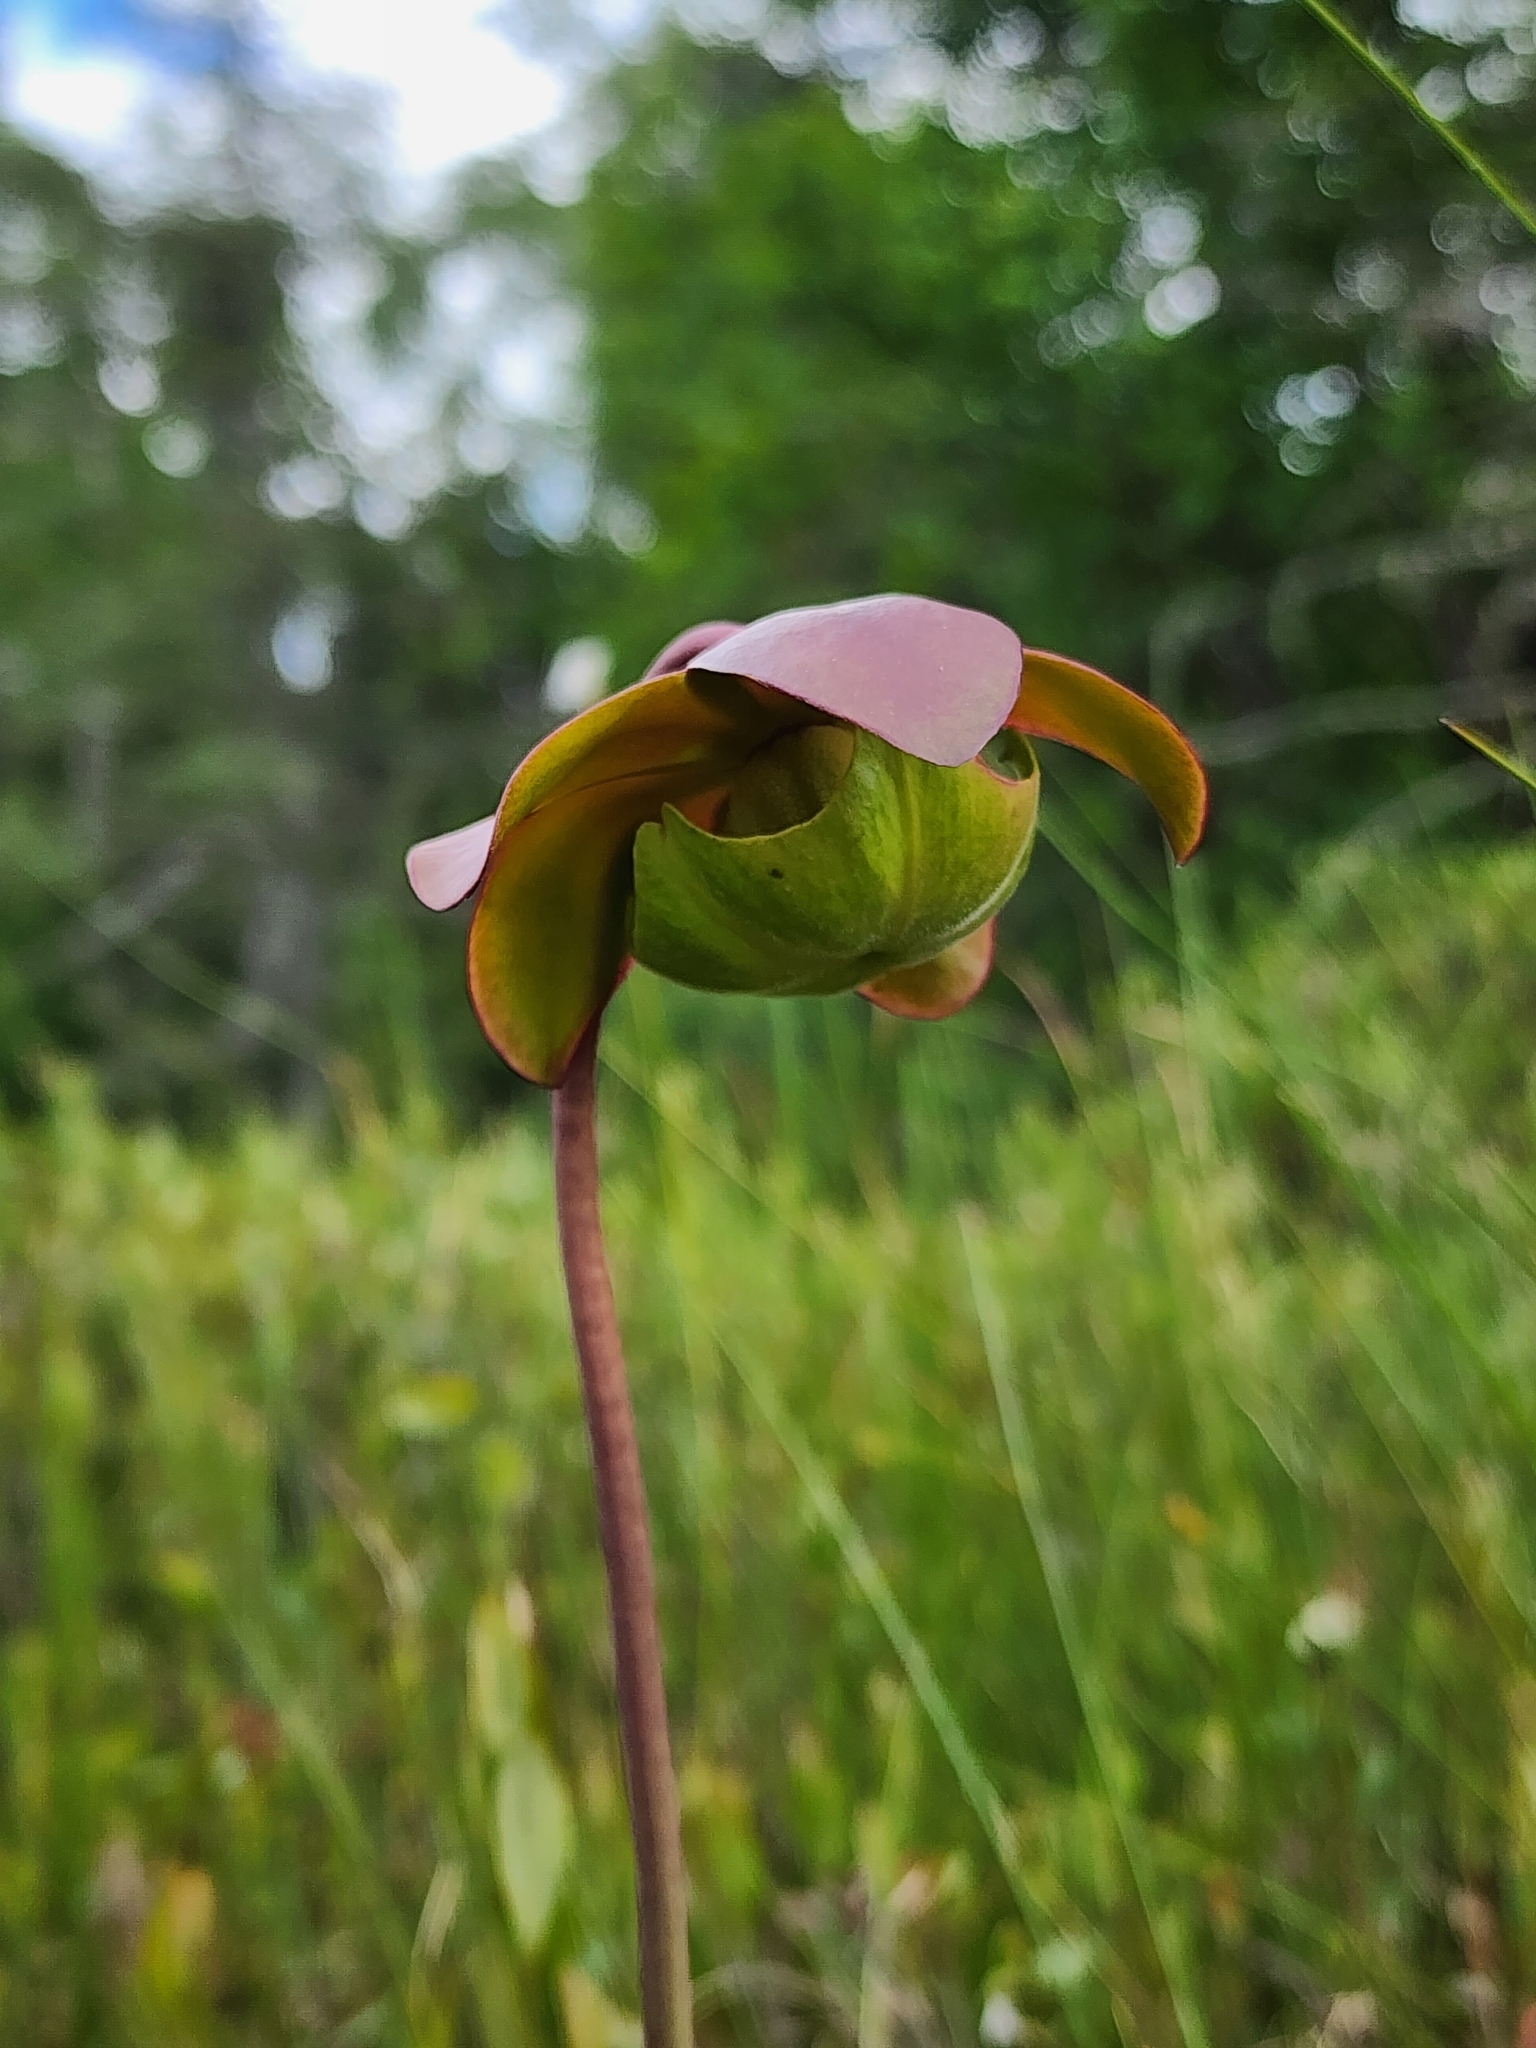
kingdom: Plantae
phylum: Tracheophyta
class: Magnoliopsida
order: Ericales
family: Sarraceniaceae
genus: Sarracenia
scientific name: Sarracenia purpurea
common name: Pitcherplant
